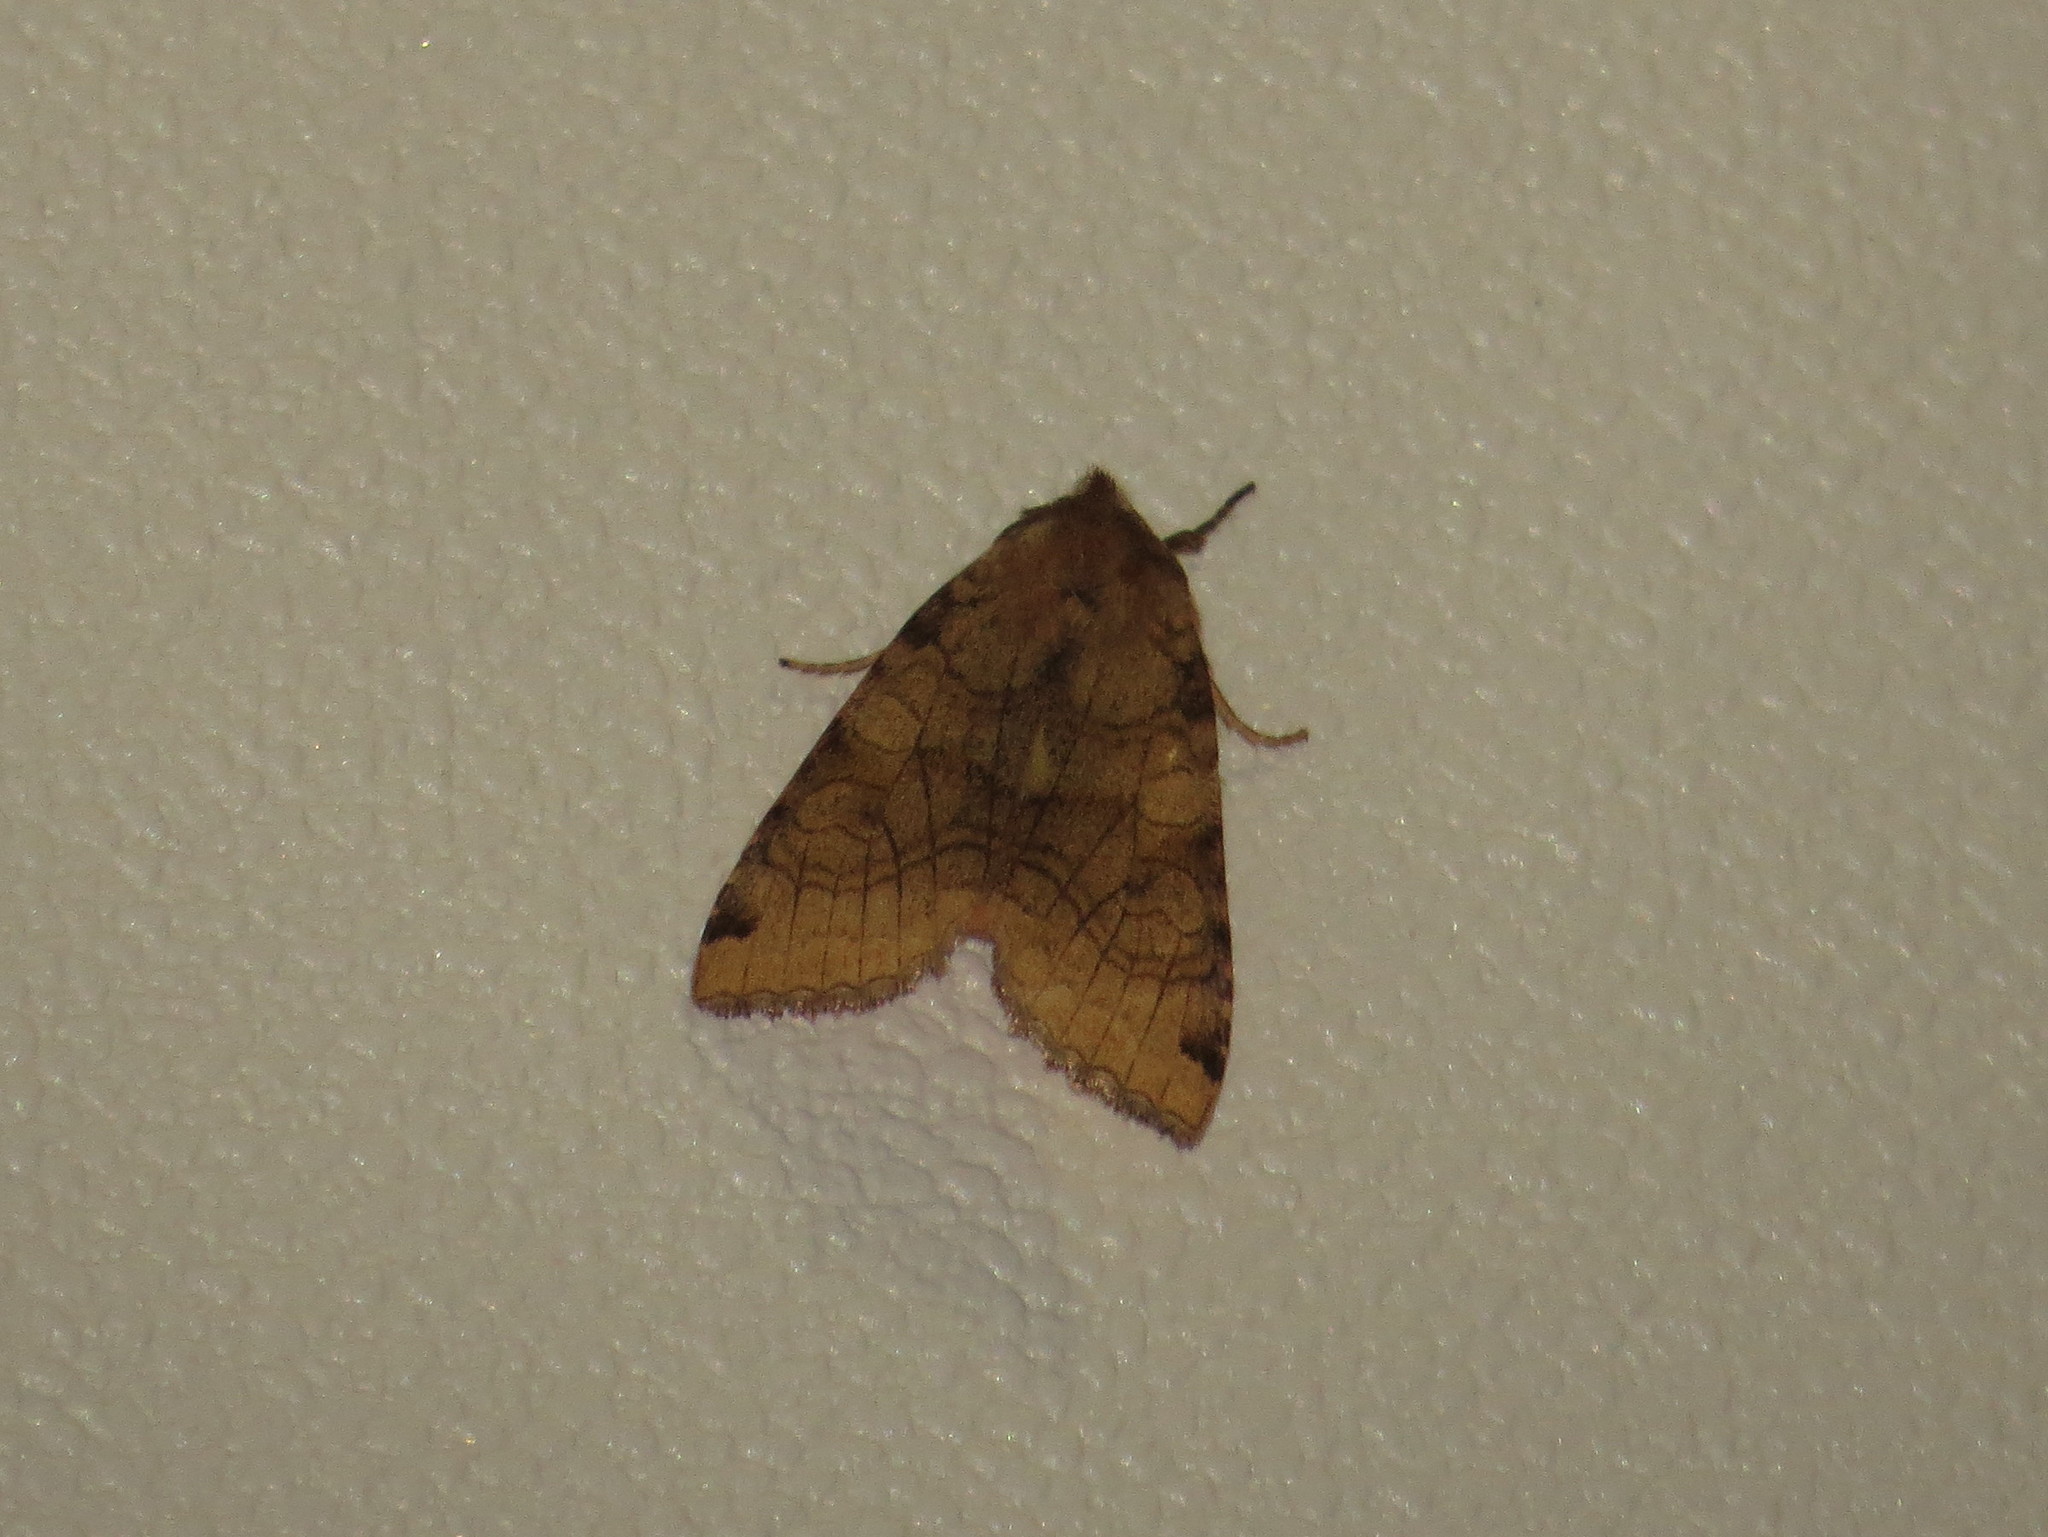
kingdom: Animalia
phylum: Arthropoda
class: Insecta
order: Lepidoptera
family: Noctuidae
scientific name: Noctuidae
